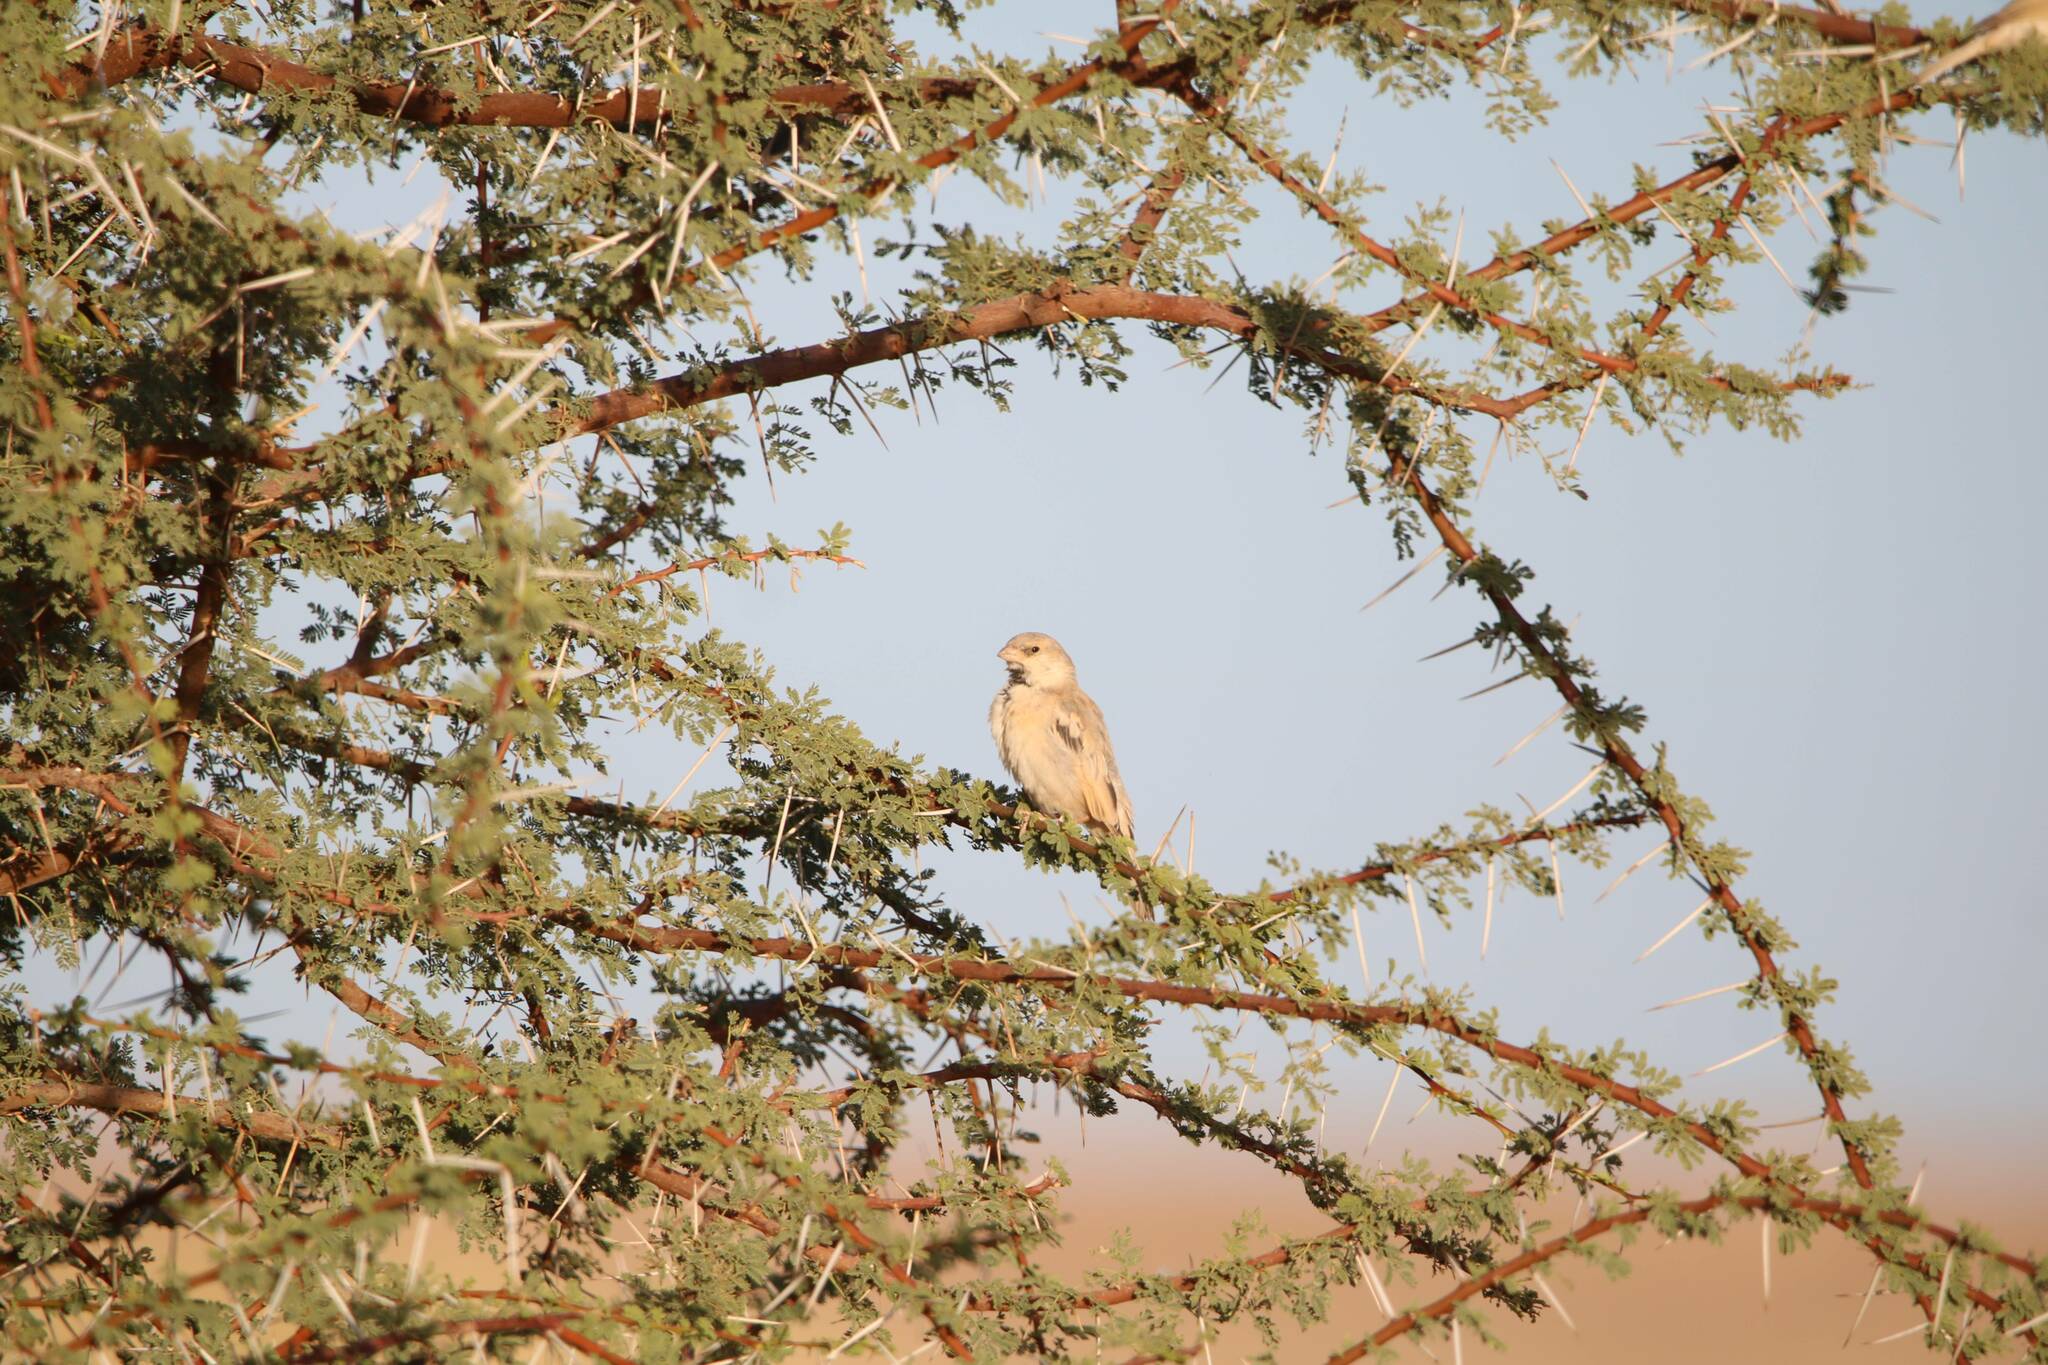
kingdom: Animalia
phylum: Chordata
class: Aves
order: Passeriformes
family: Passeridae
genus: Passer
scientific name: Passer simplex
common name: Desert sparrow
